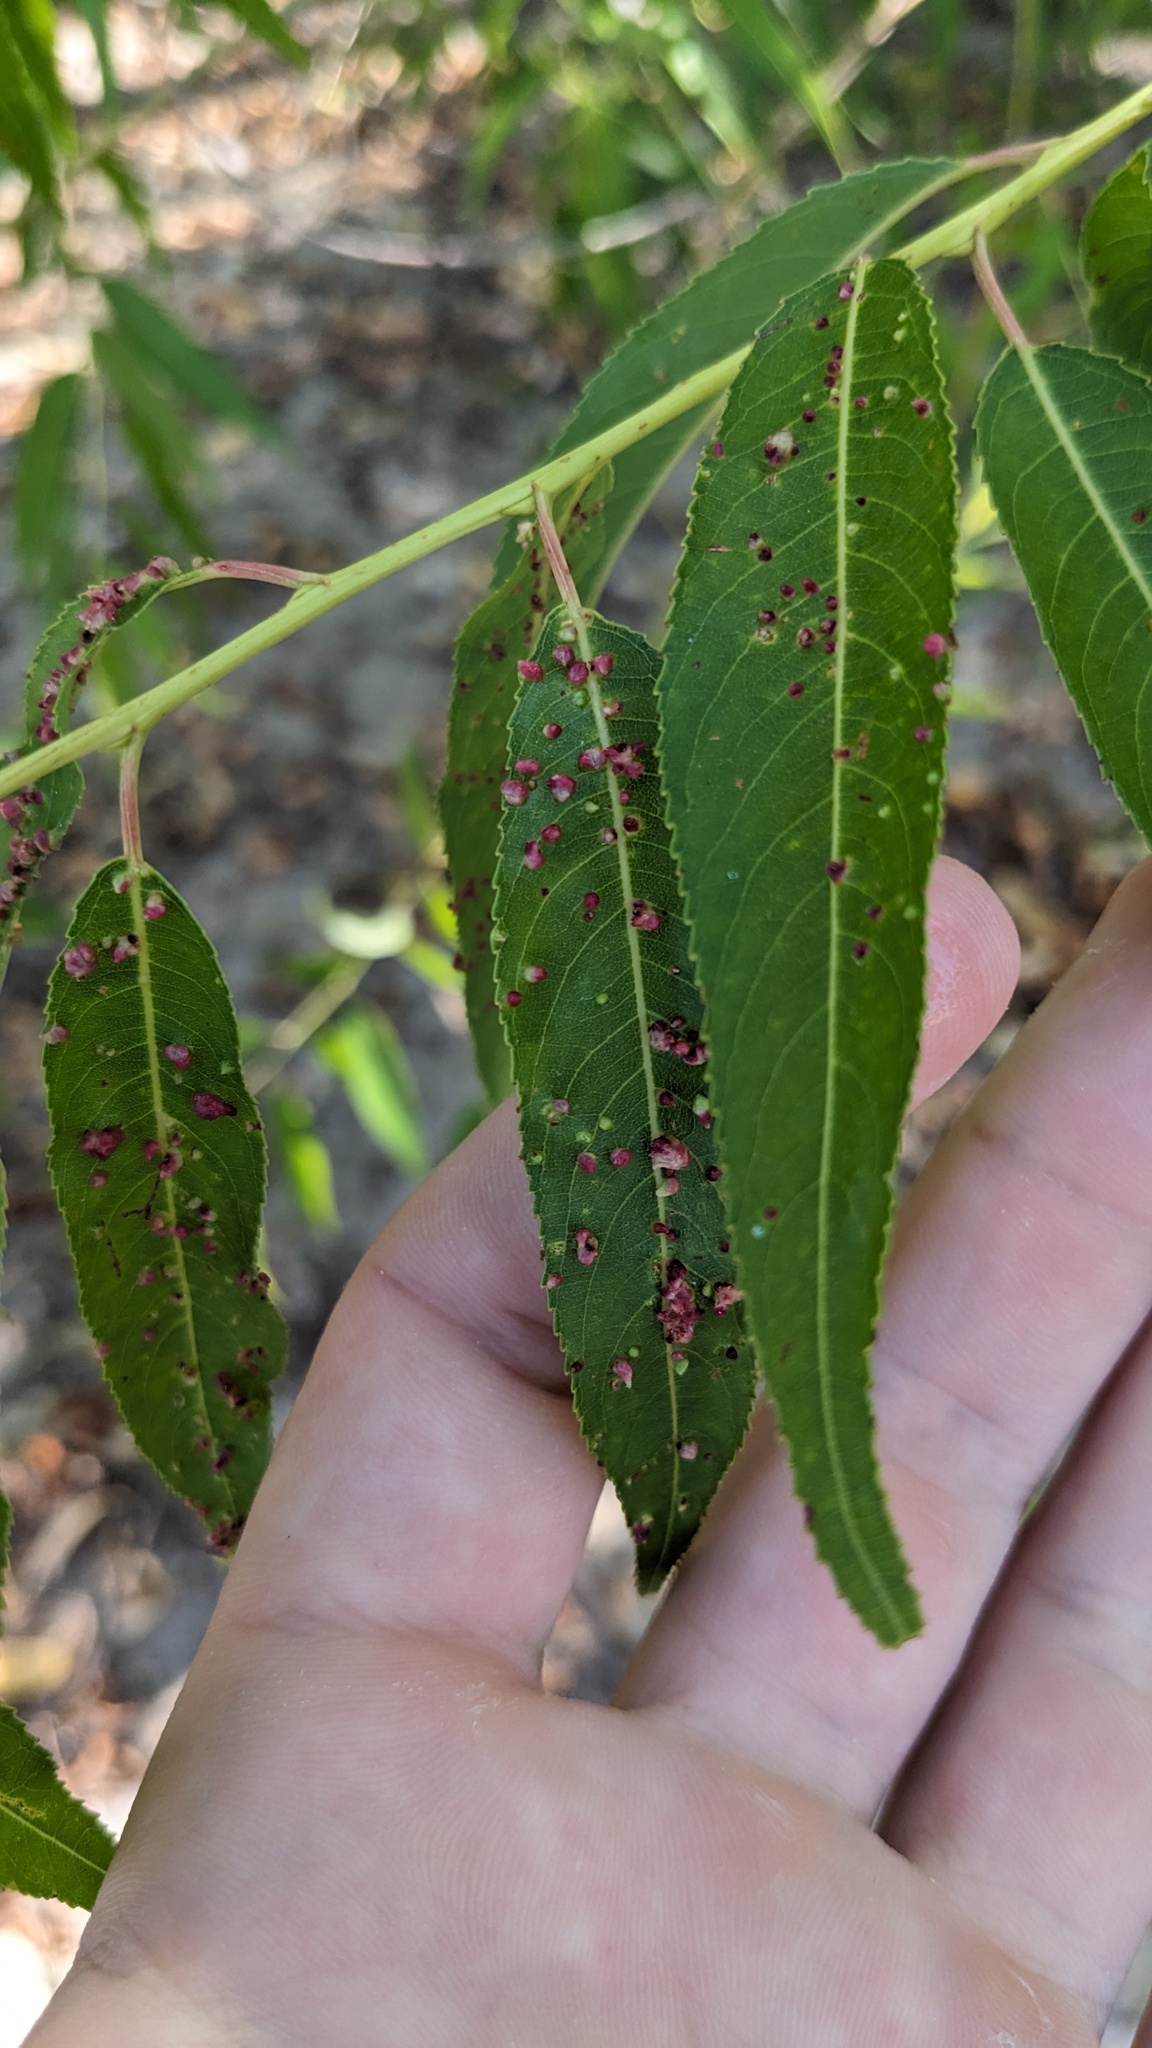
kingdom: Animalia
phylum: Arthropoda
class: Arachnida
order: Trombidiformes
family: Eriophyidae
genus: Aculus
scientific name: Aculus tetanothrix
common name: Willow bead gall mite
